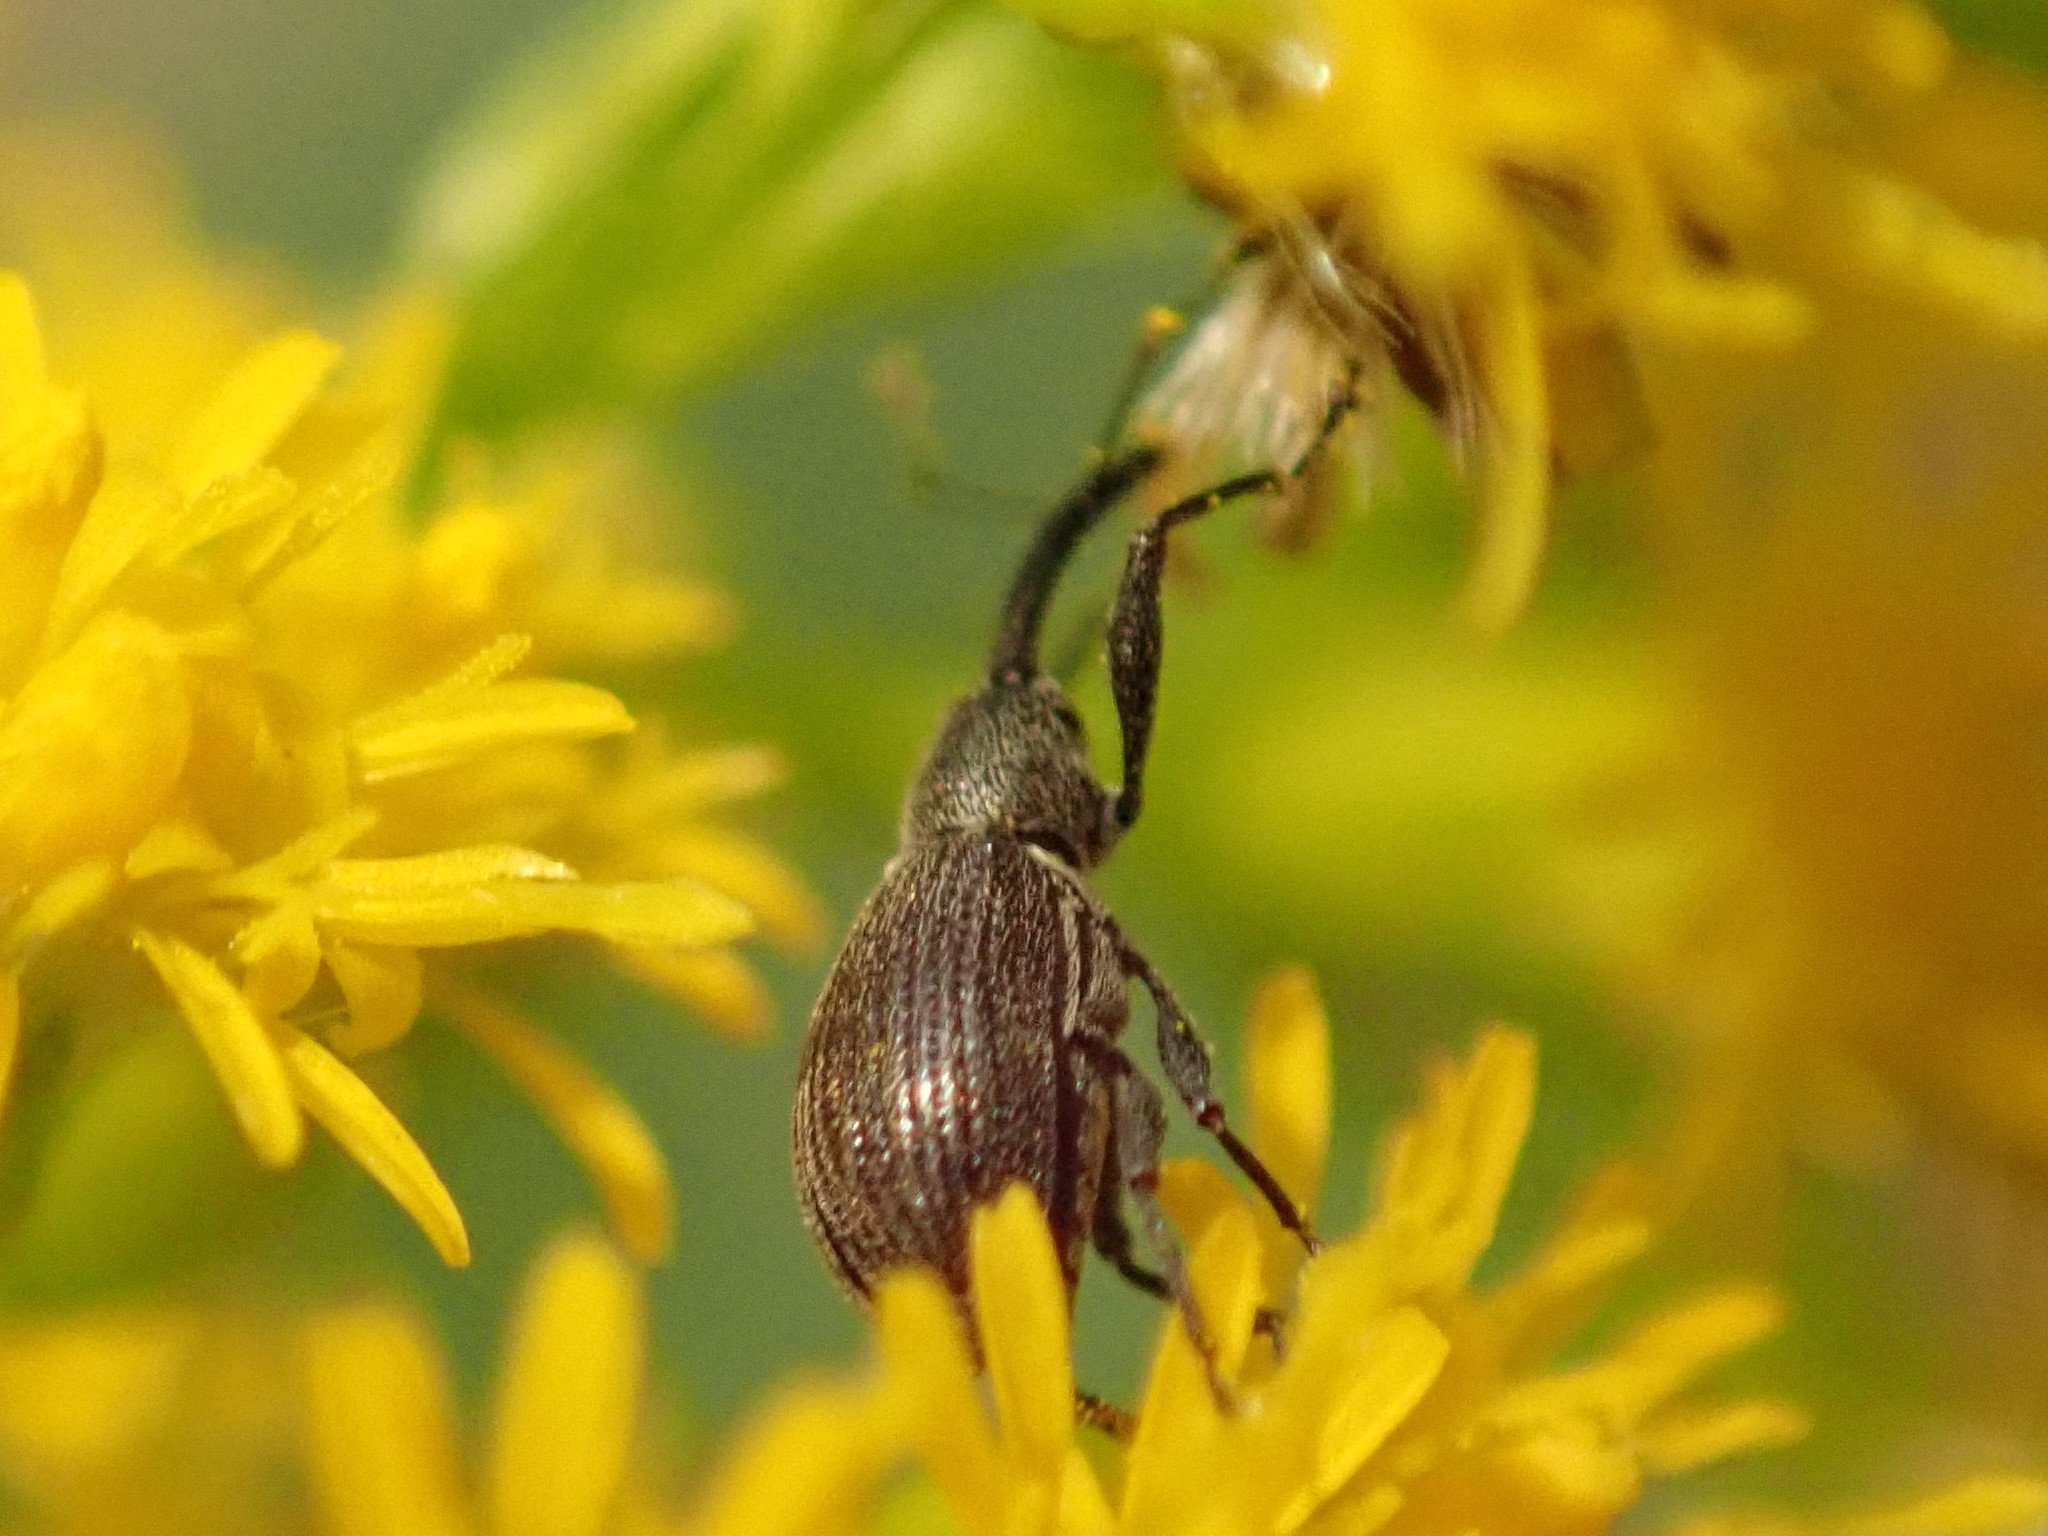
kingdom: Animalia
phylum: Arthropoda
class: Insecta
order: Coleoptera
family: Curculionidae
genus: Anthonomus
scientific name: Anthonomus rubi
